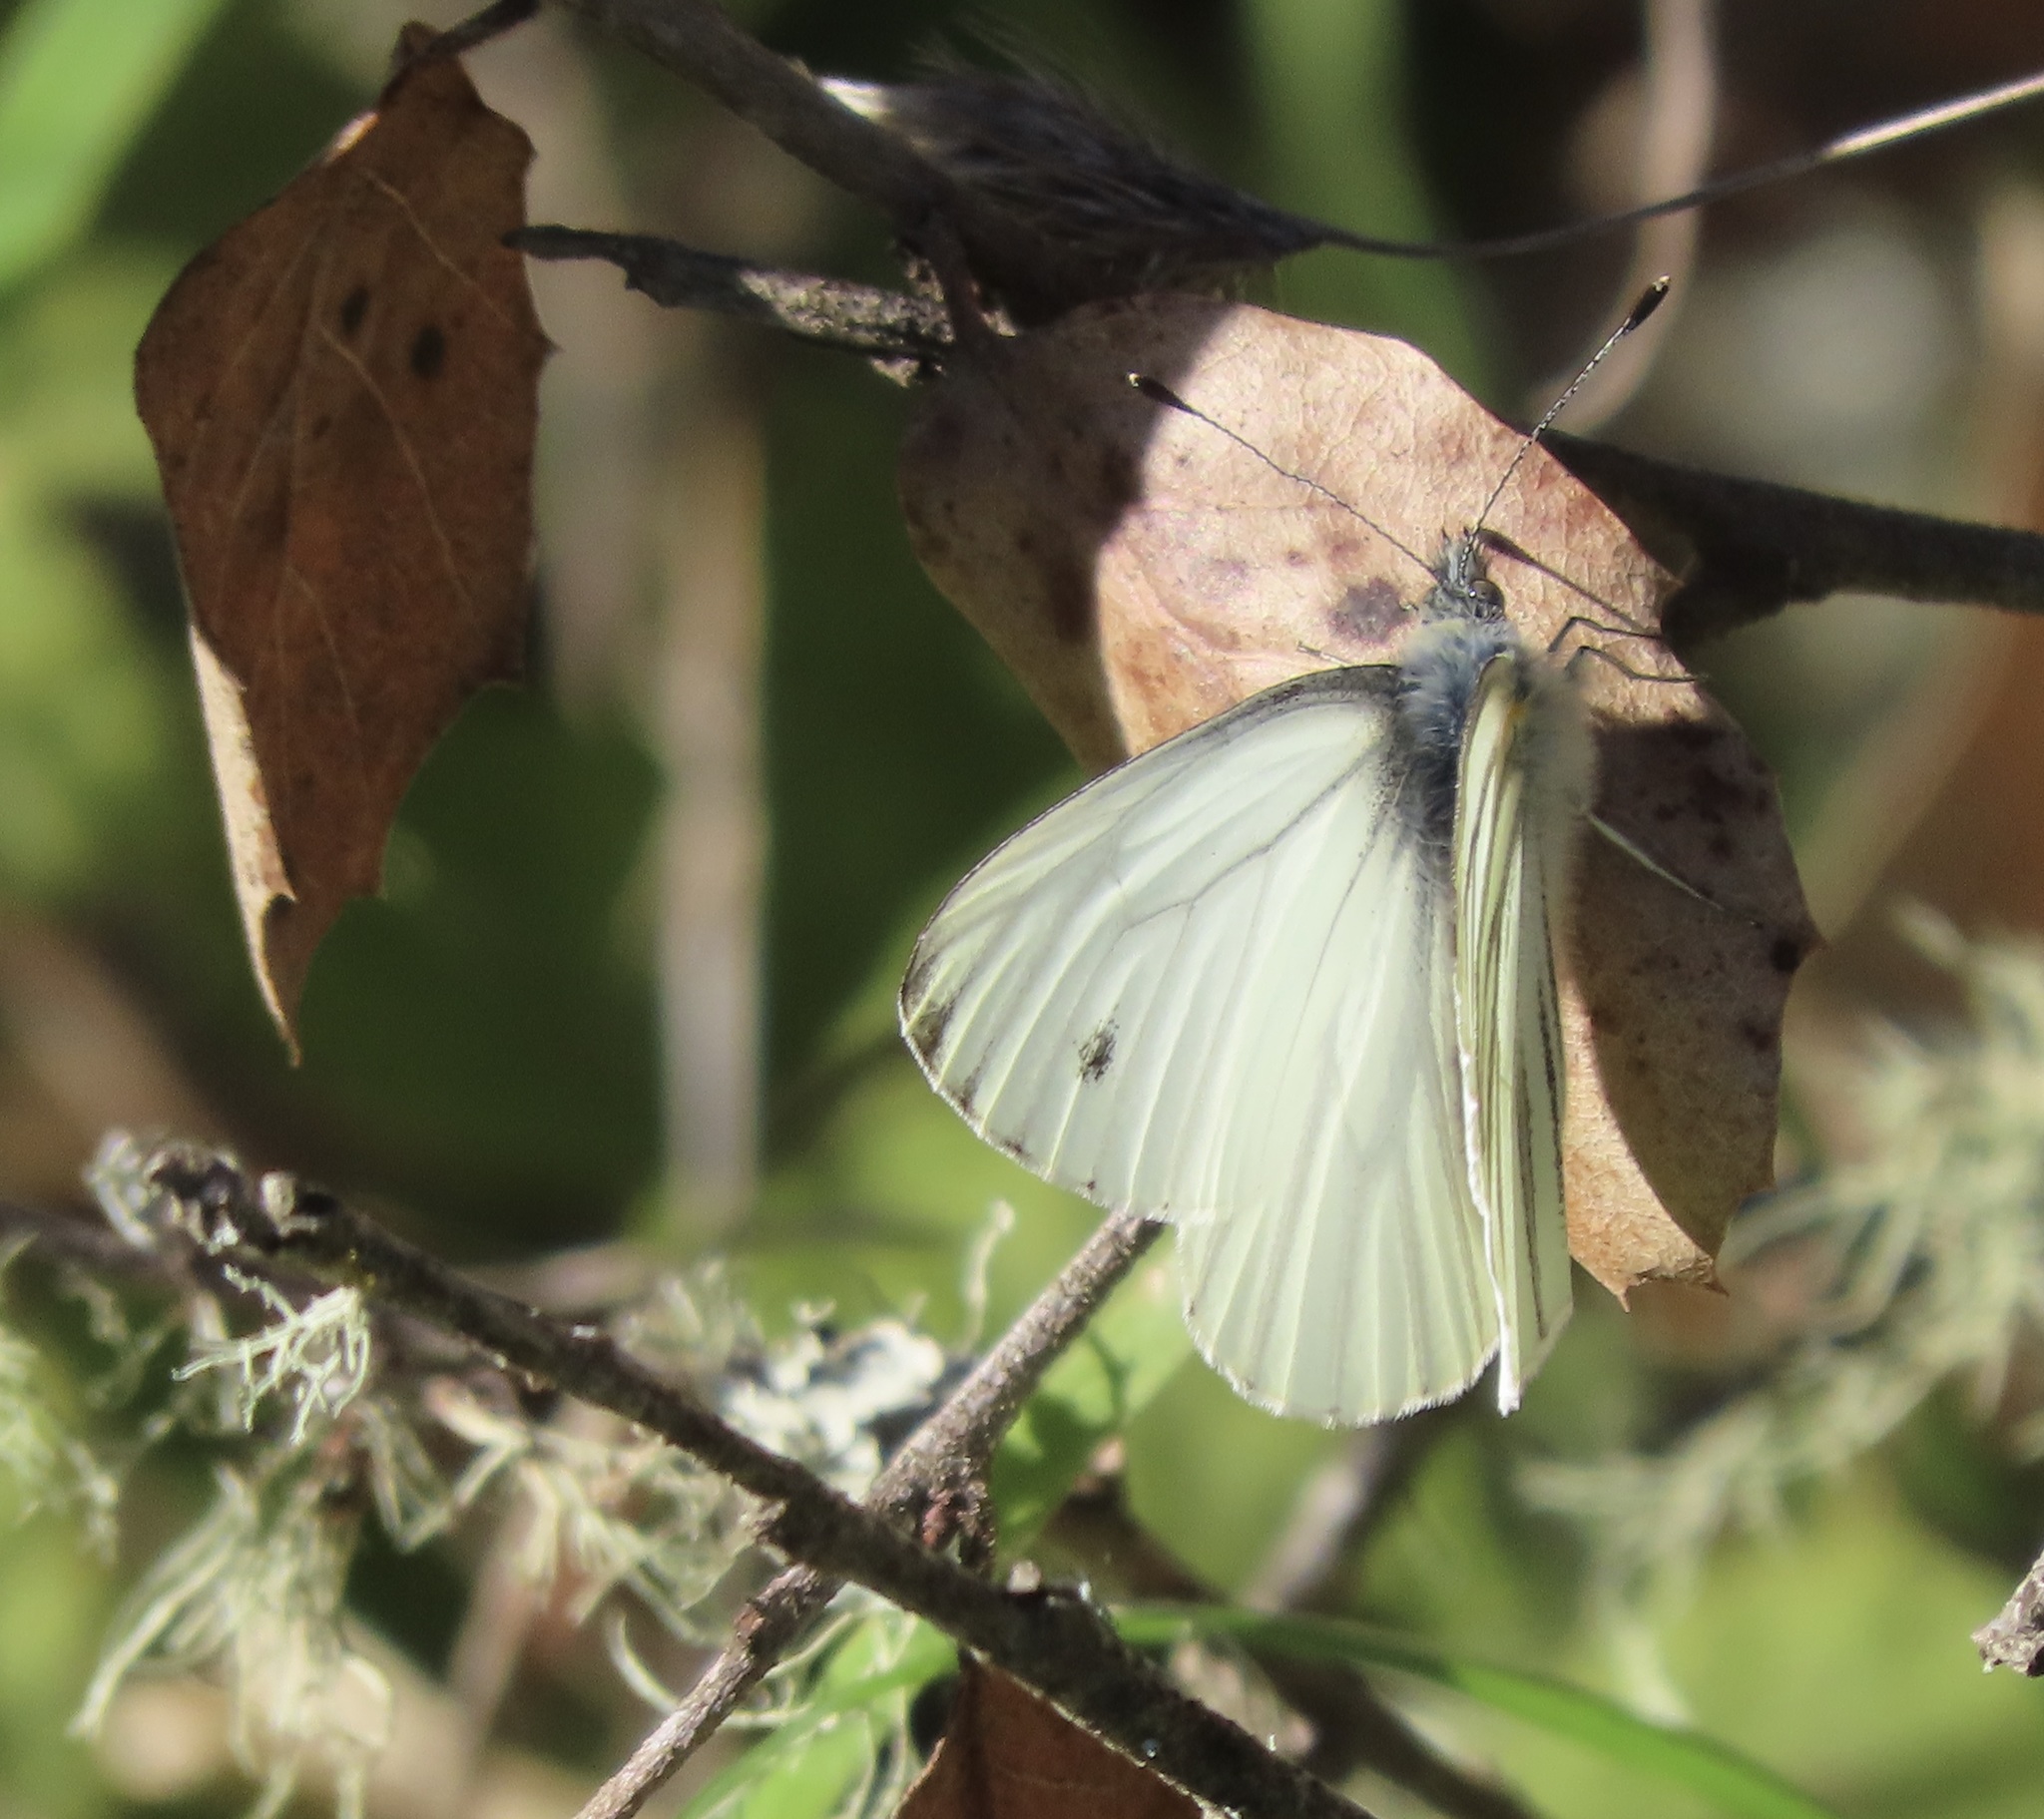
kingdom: Animalia
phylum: Arthropoda
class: Insecta
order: Lepidoptera
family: Pieridae
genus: Pieris
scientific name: Pieris marginalis
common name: Margined white
